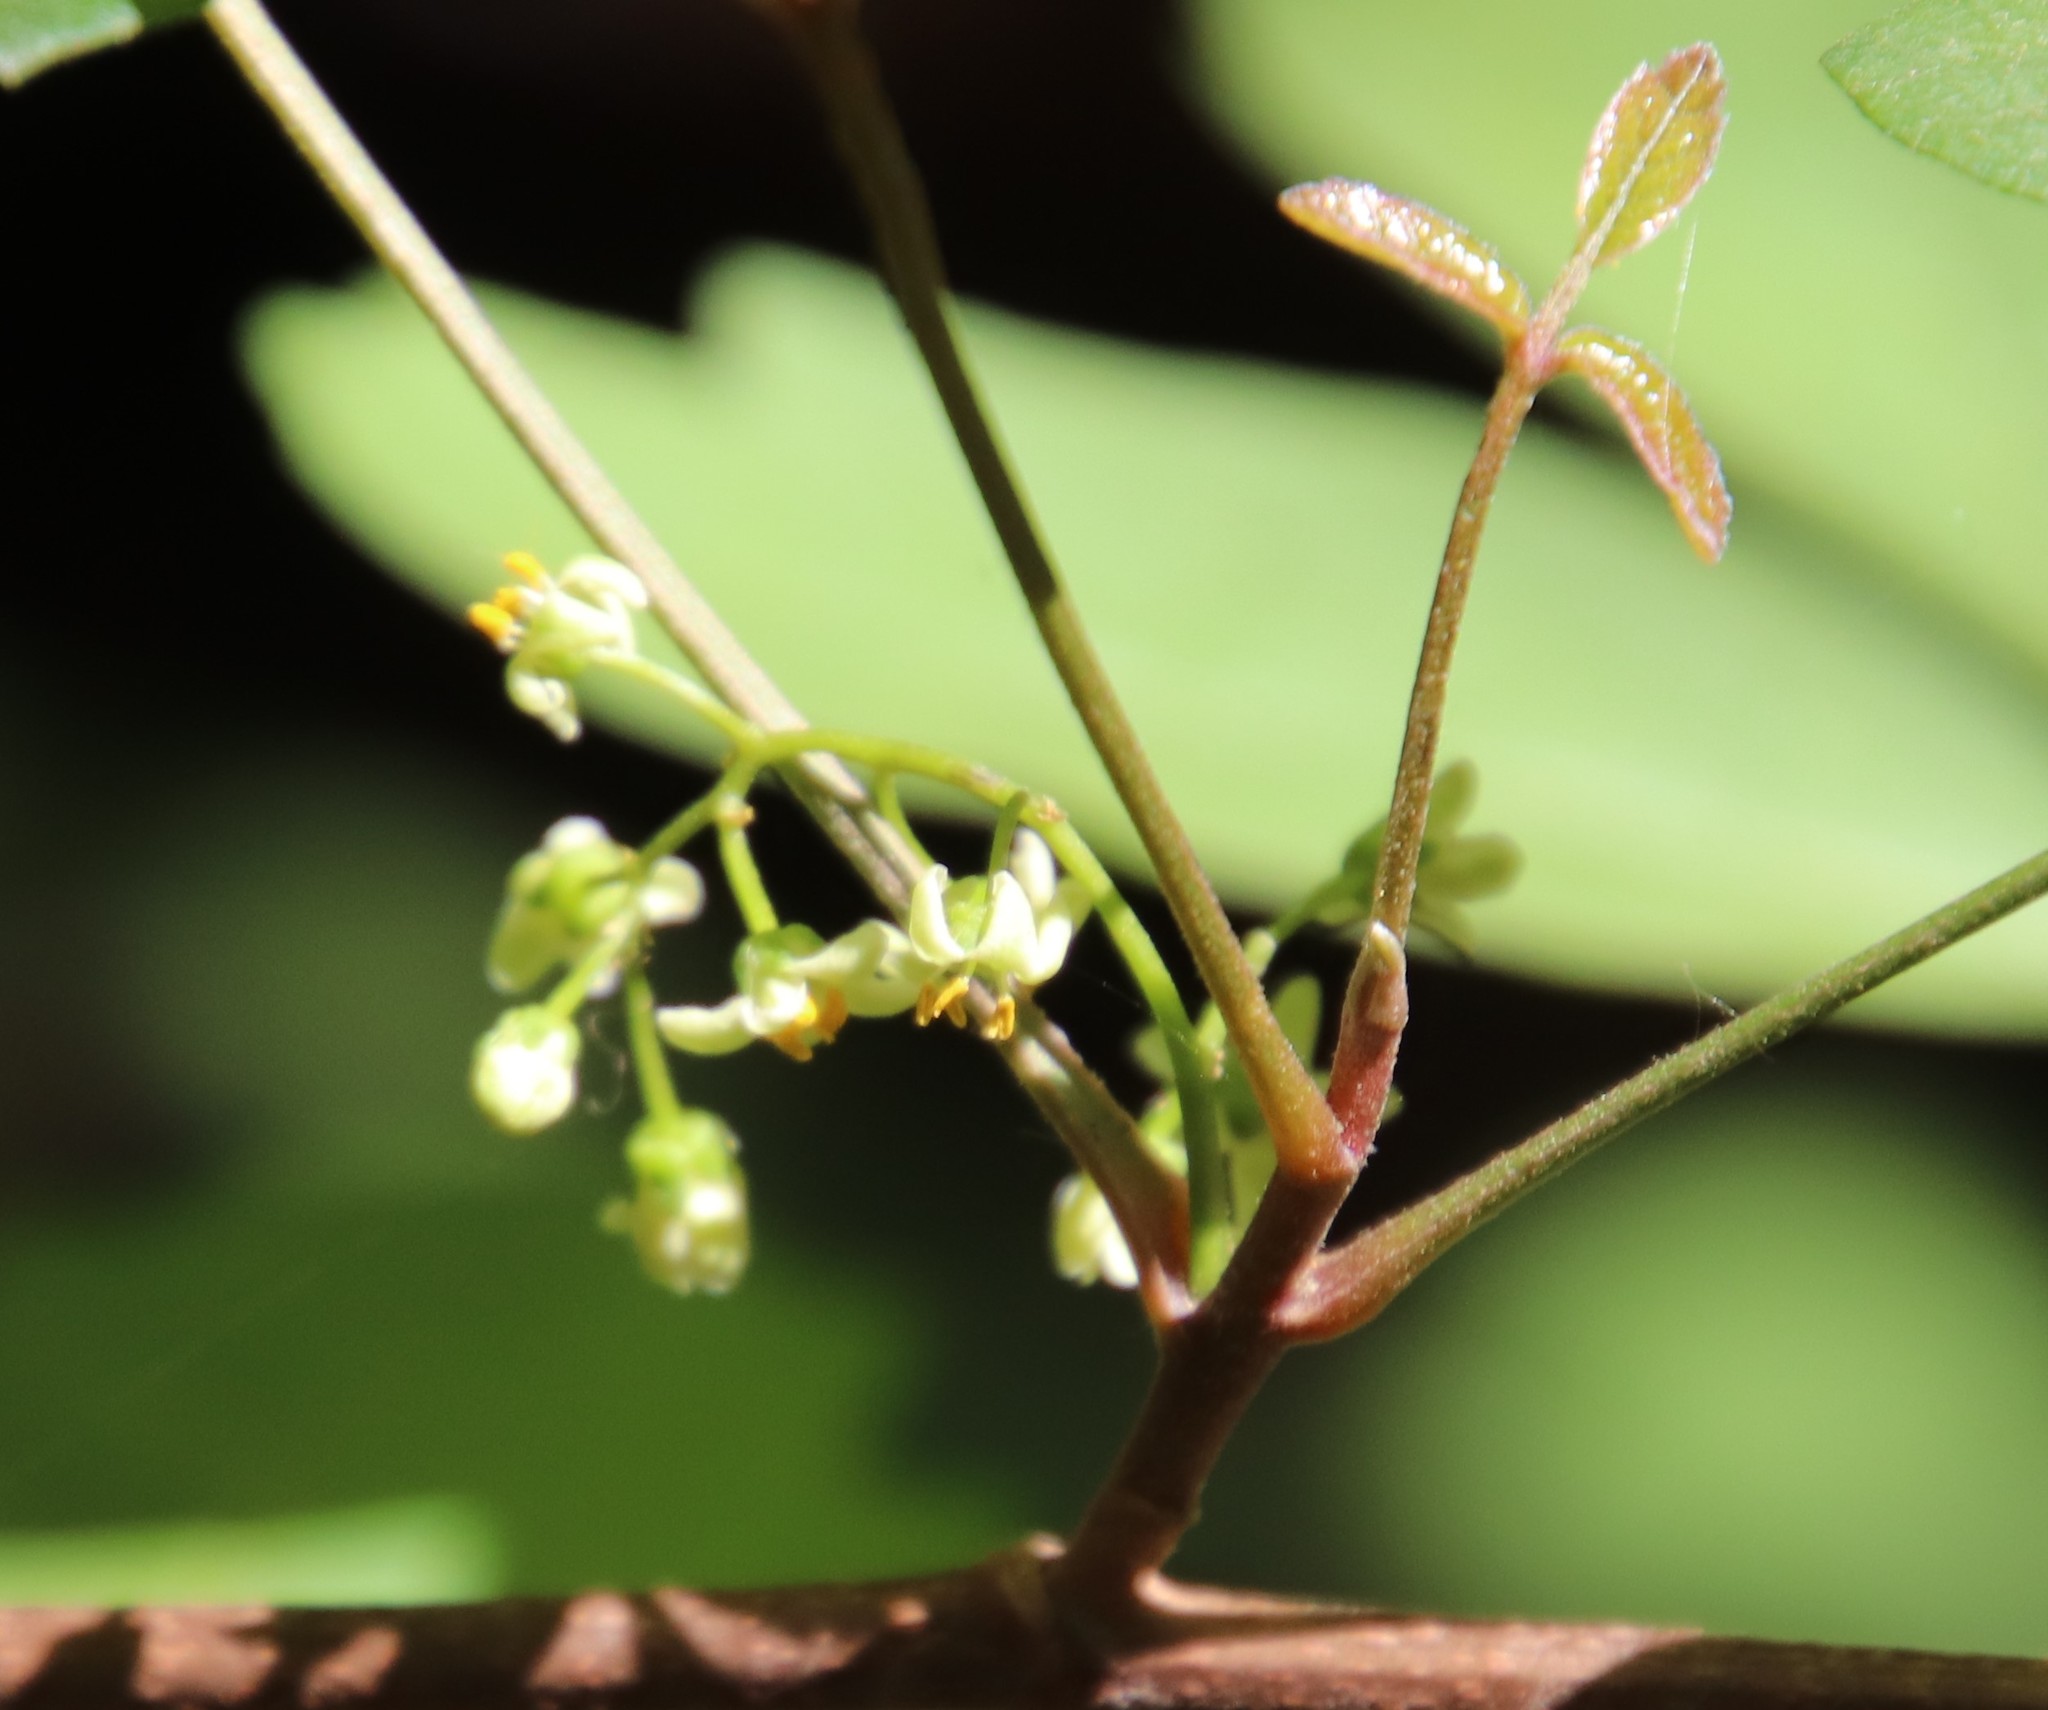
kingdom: Plantae
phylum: Tracheophyta
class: Magnoliopsida
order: Sapindales
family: Anacardiaceae
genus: Toxicodendron
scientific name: Toxicodendron diversilobum
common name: Pacific poison-oak
